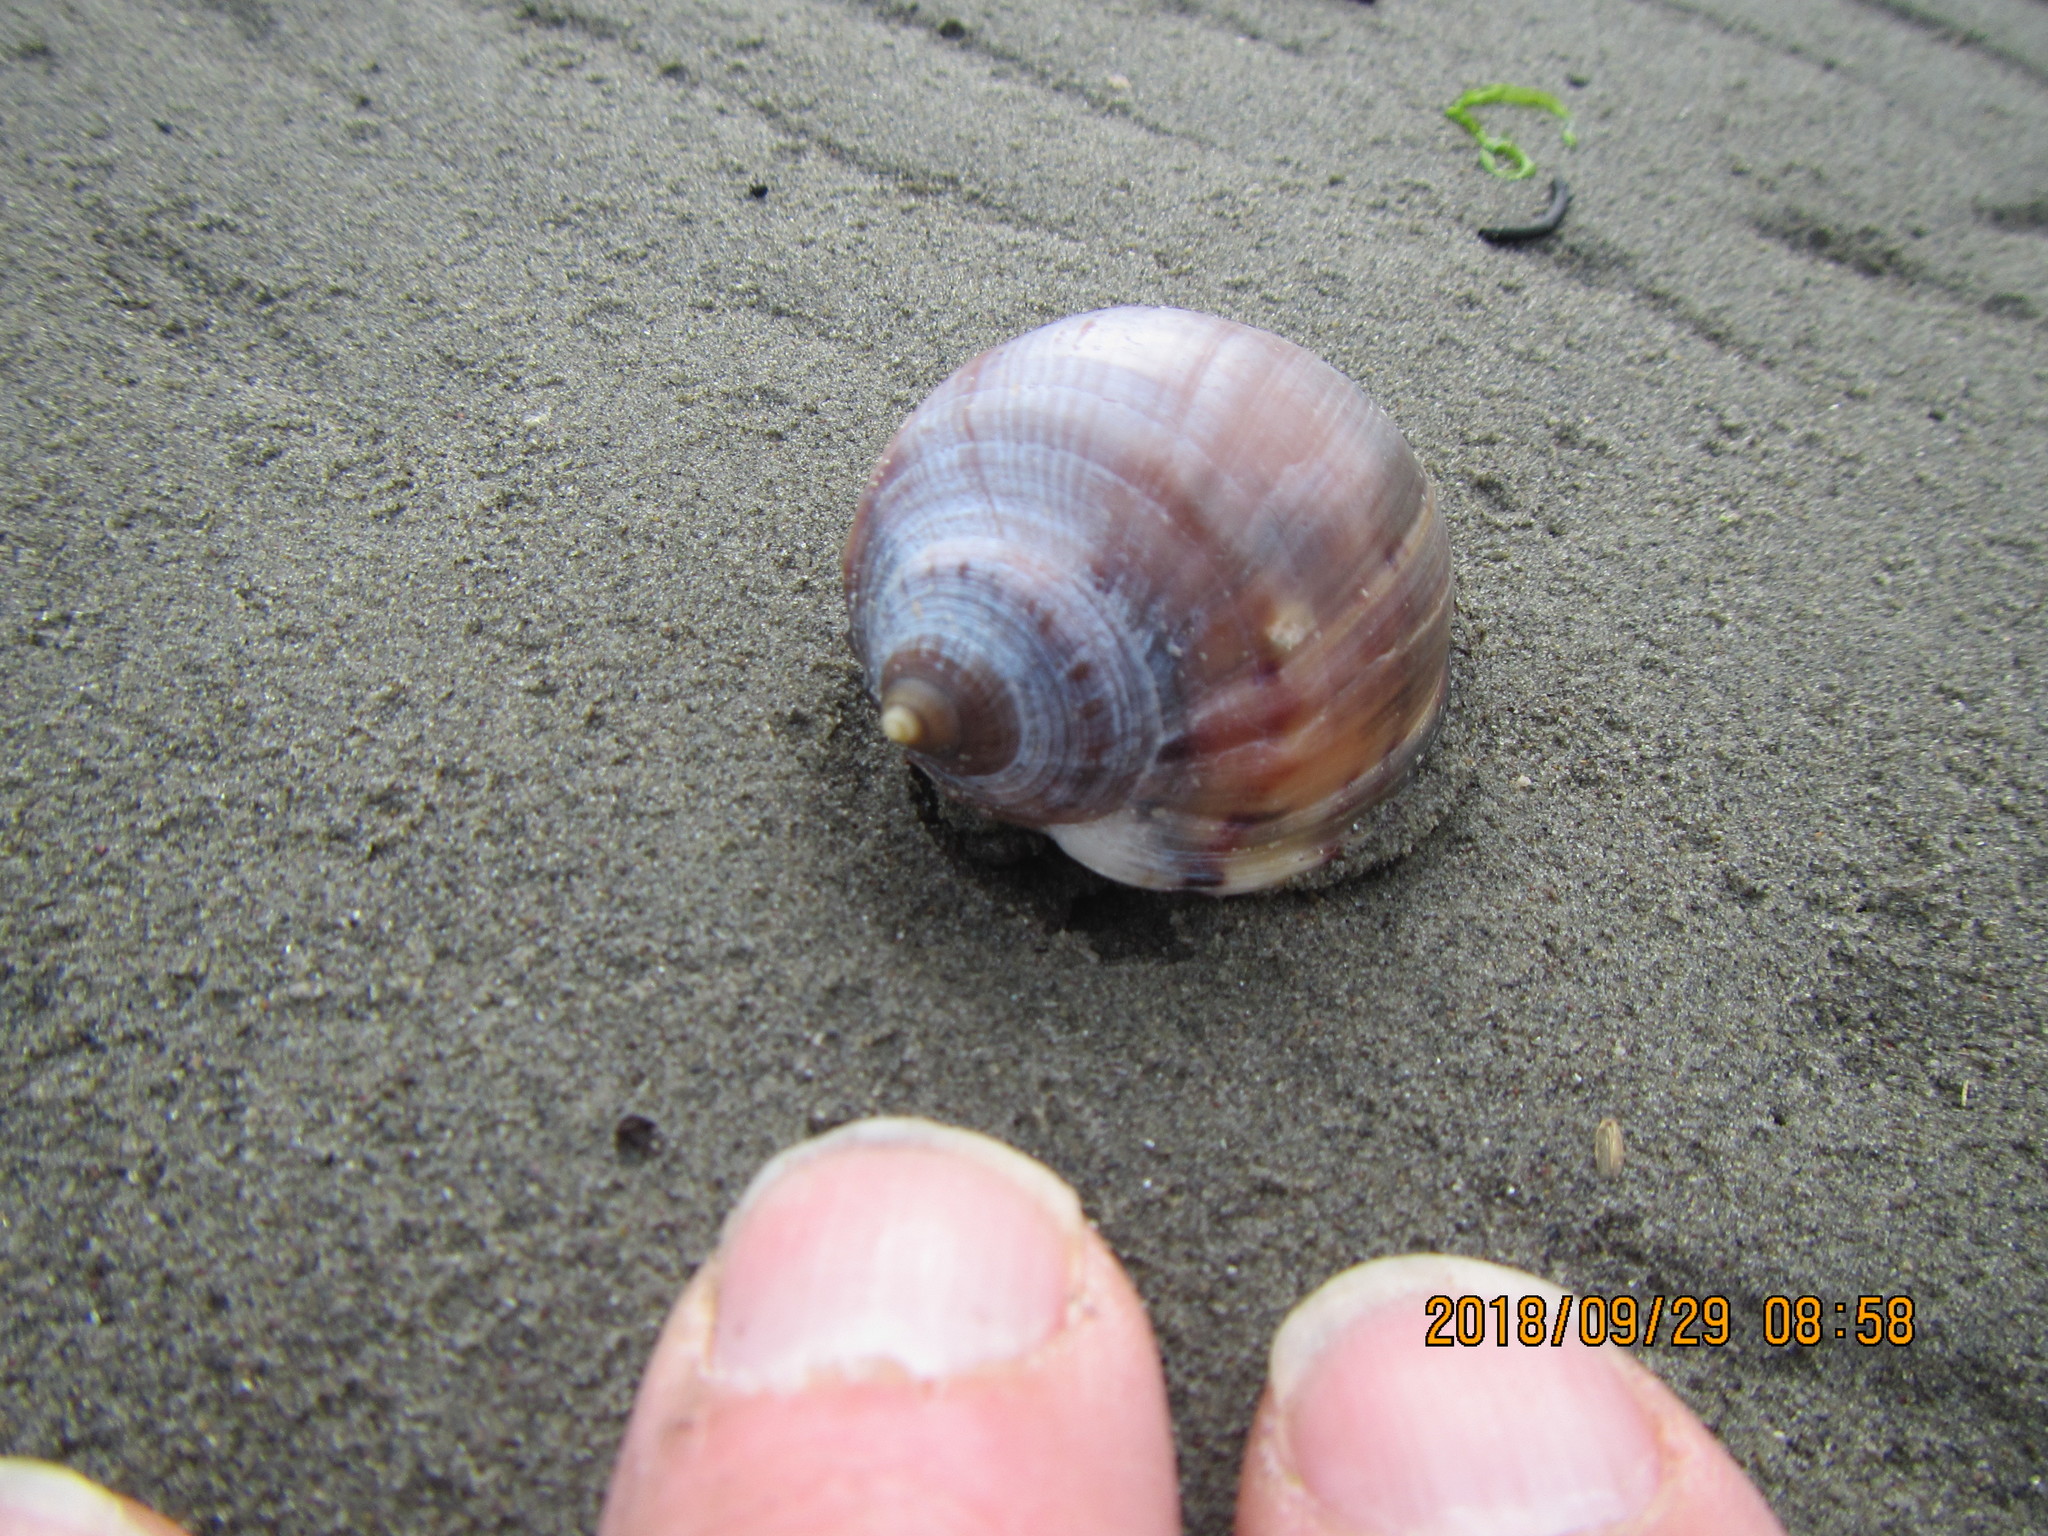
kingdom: Animalia
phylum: Mollusca
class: Gastropoda
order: Littorinimorpha
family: Cassidae
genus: Semicassis
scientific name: Semicassis pyrum
